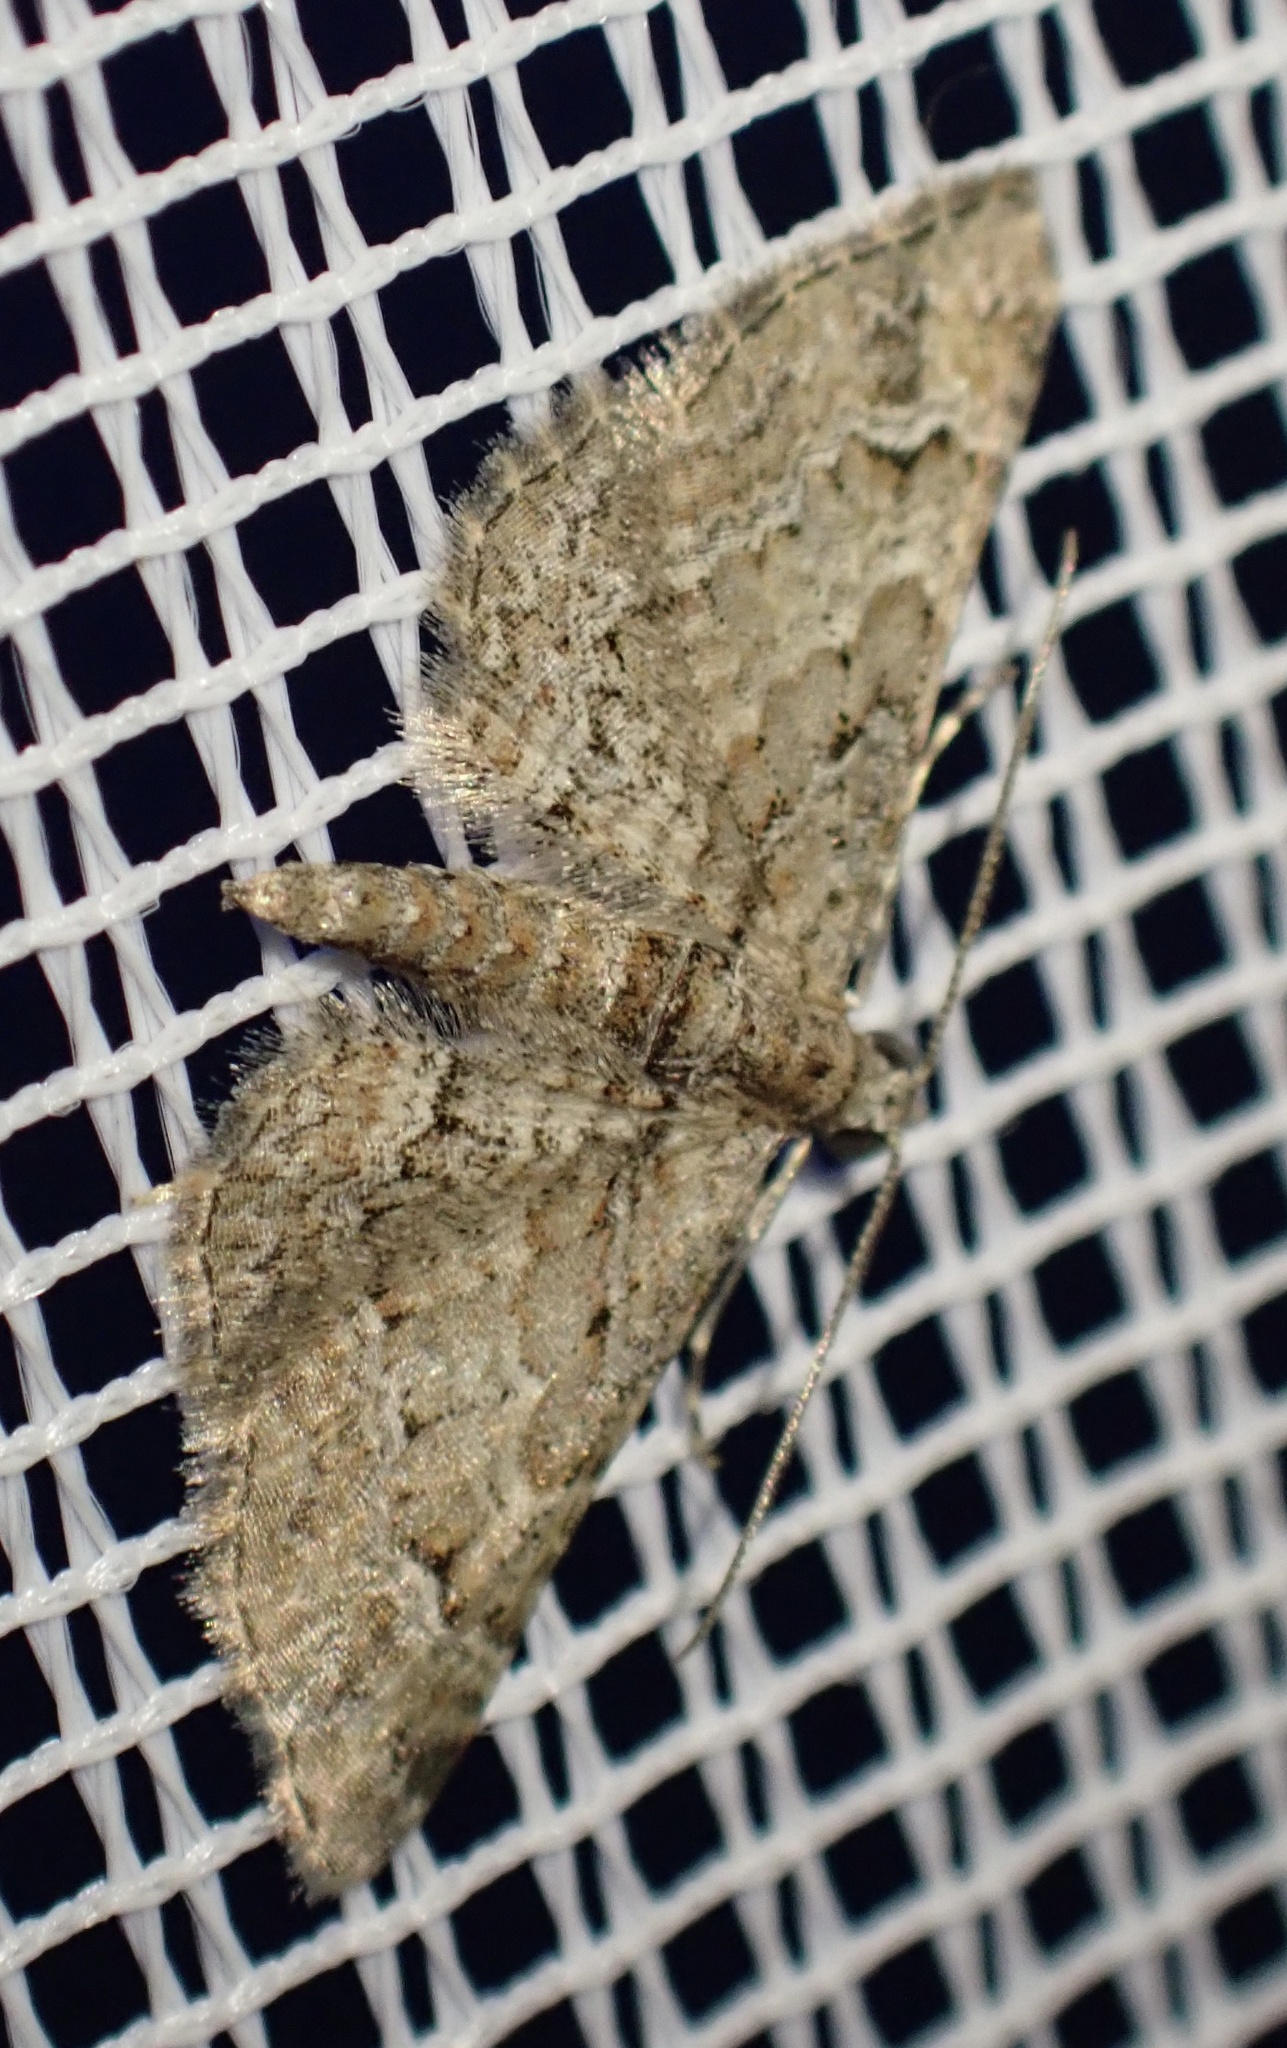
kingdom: Animalia
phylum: Arthropoda
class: Insecta
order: Lepidoptera
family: Geometridae
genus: Gymnoscelis
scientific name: Gymnoscelis rufifasciata
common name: Double-striped pug
